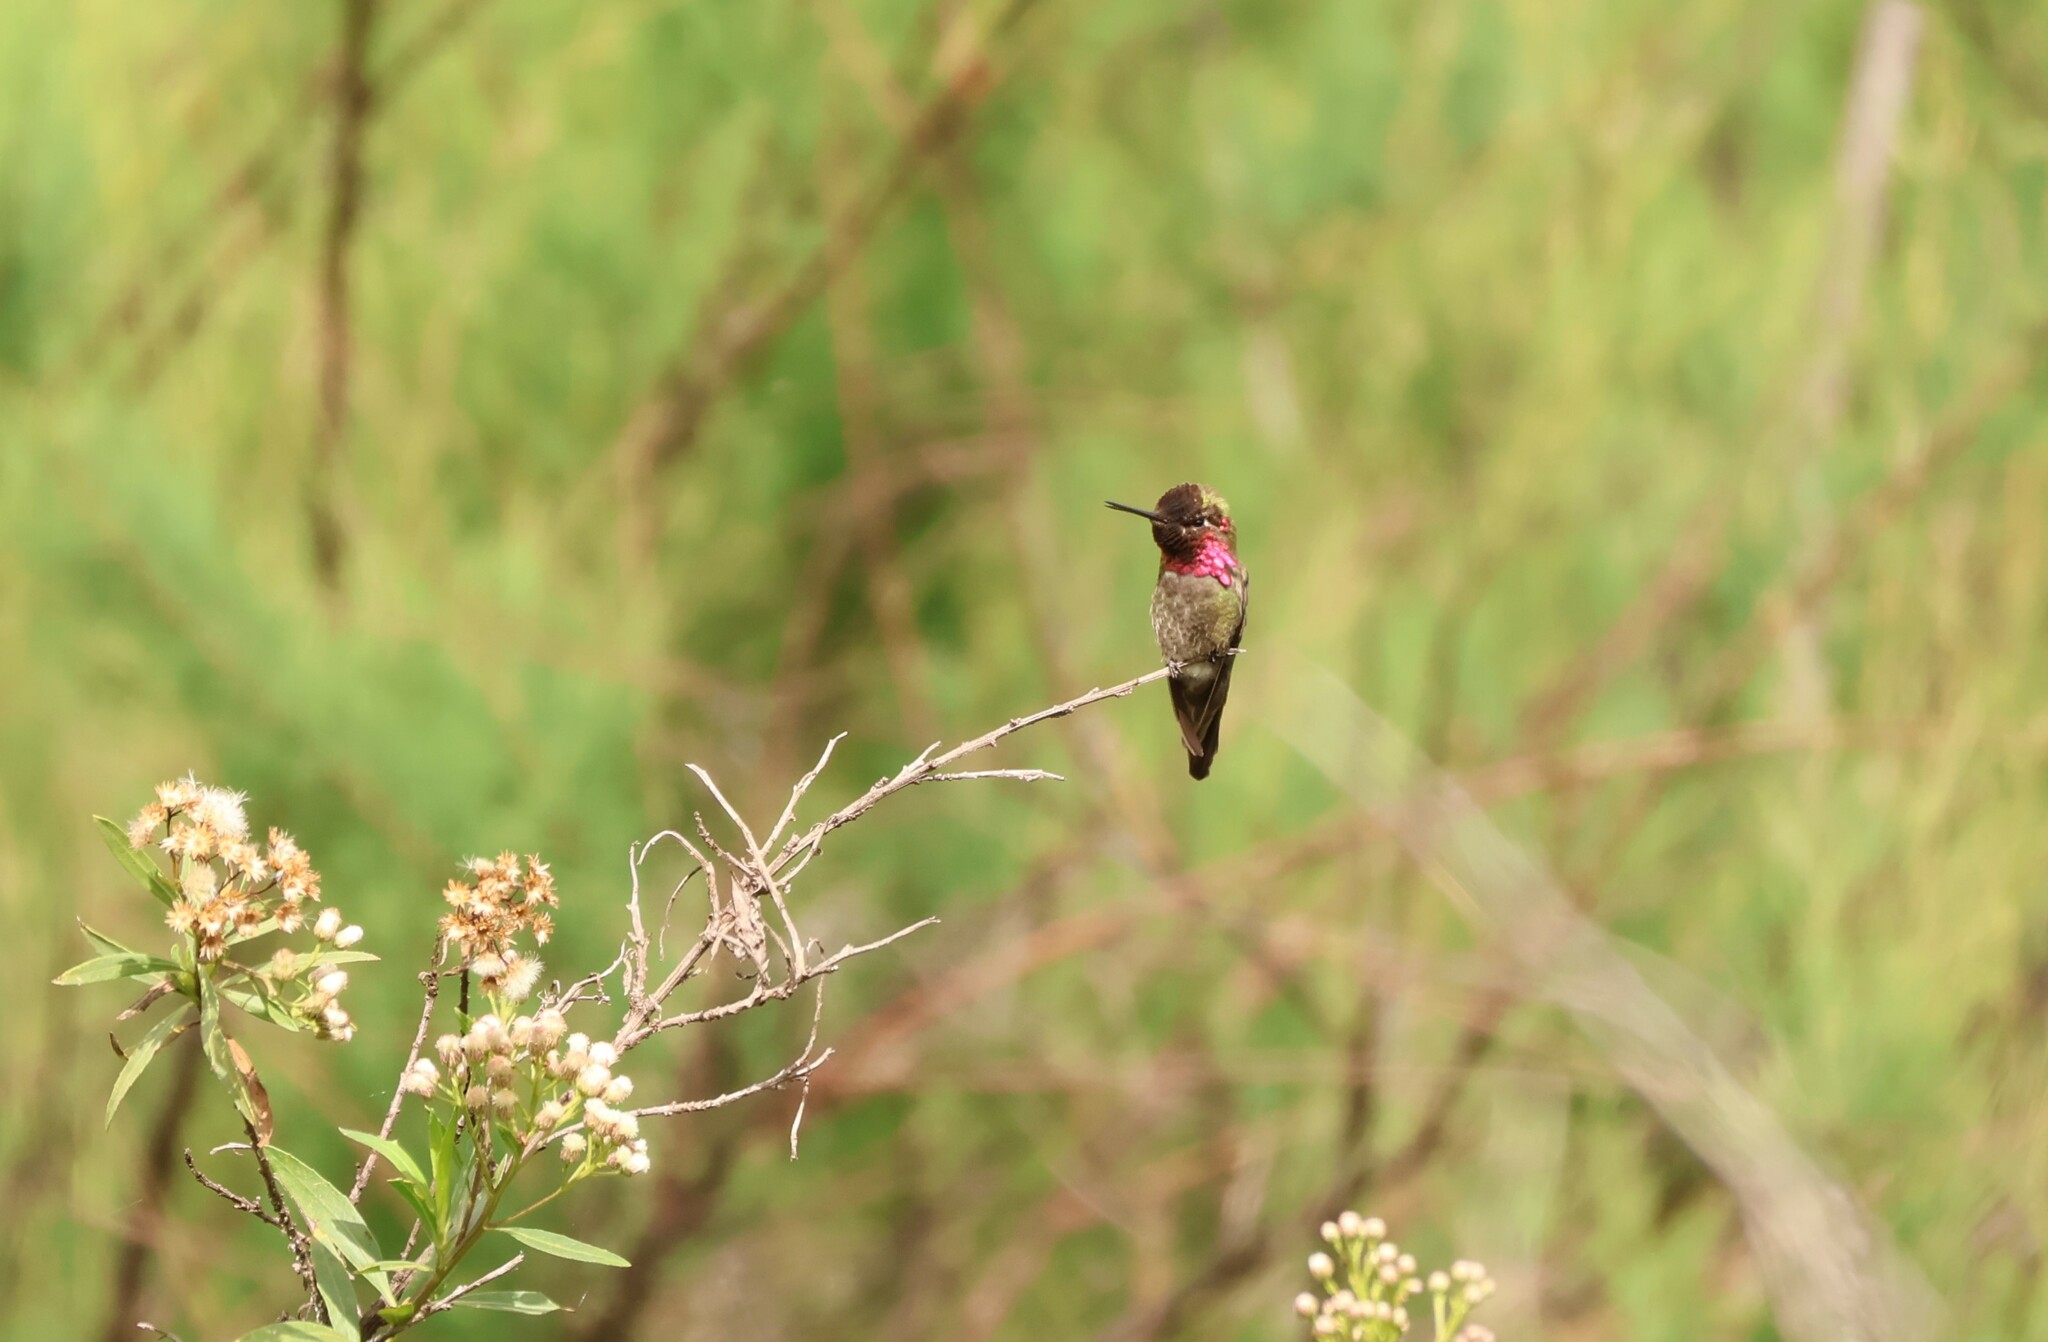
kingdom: Animalia
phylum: Chordata
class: Aves
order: Apodiformes
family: Trochilidae
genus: Calypte
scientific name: Calypte anna
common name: Anna's hummingbird
